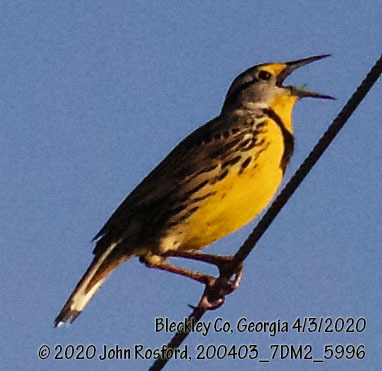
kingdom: Animalia
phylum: Chordata
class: Aves
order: Passeriformes
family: Icteridae
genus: Sturnella
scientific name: Sturnella magna
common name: Eastern meadowlark
